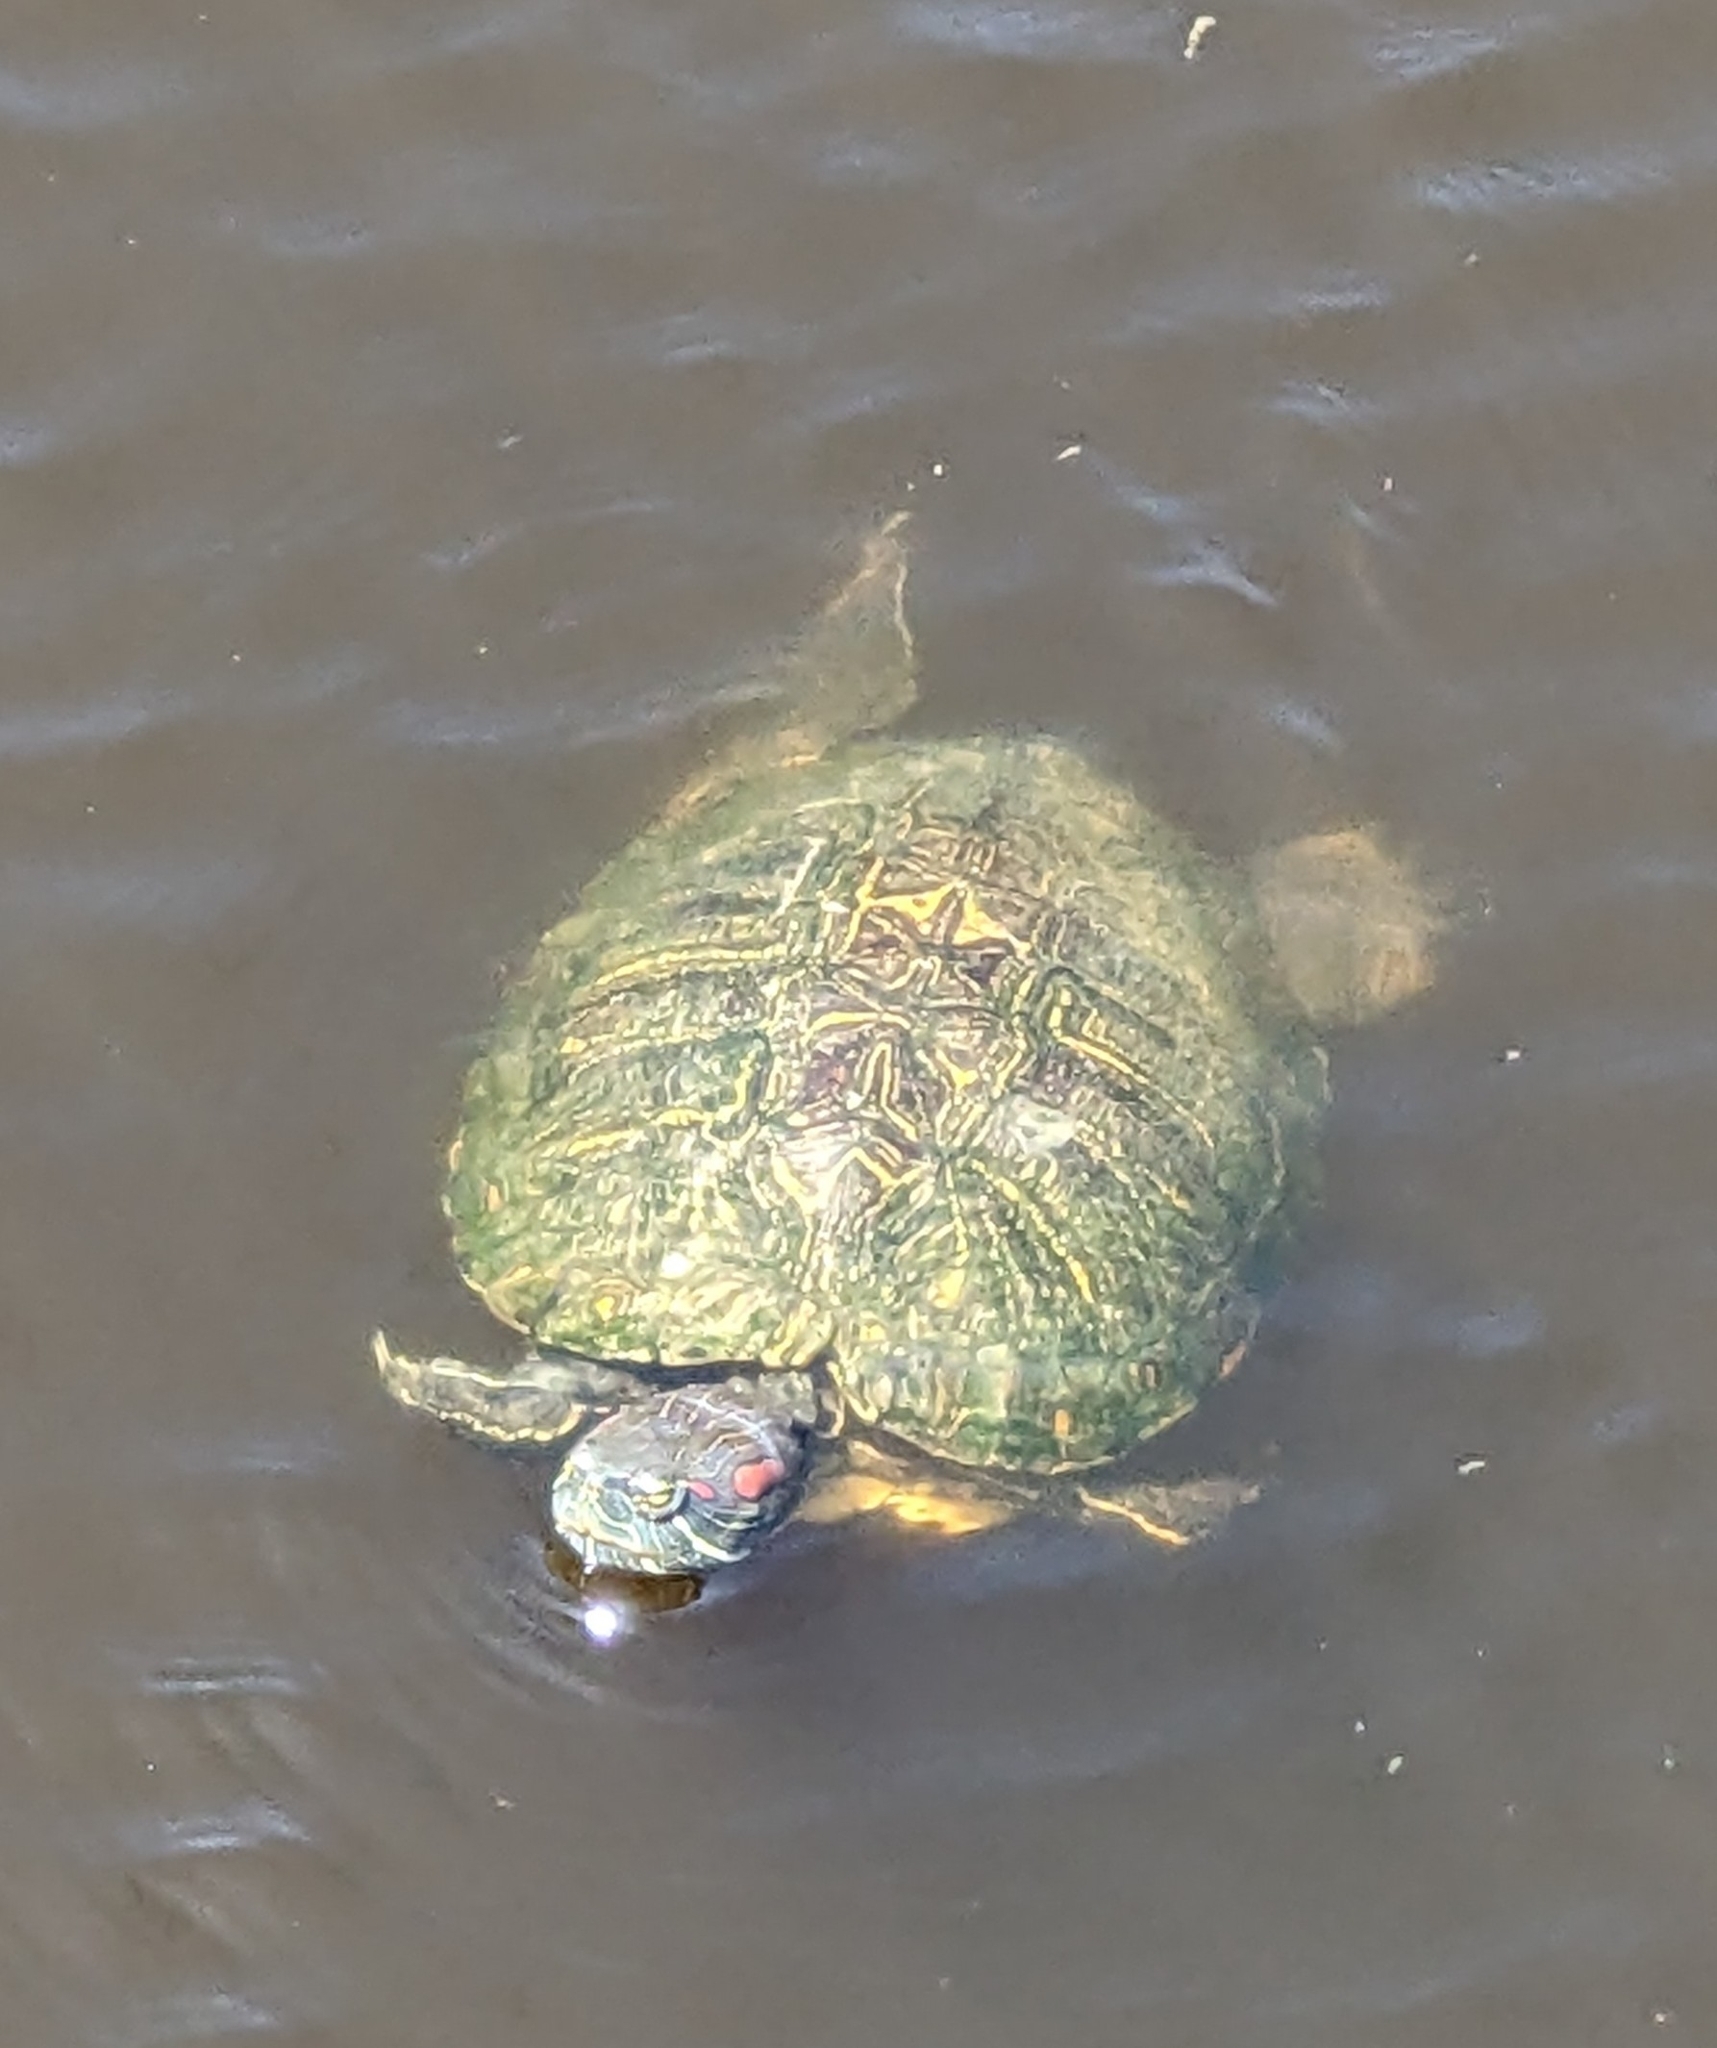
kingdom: Animalia
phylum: Chordata
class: Testudines
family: Emydidae
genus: Trachemys
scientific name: Trachemys scripta
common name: Slider
